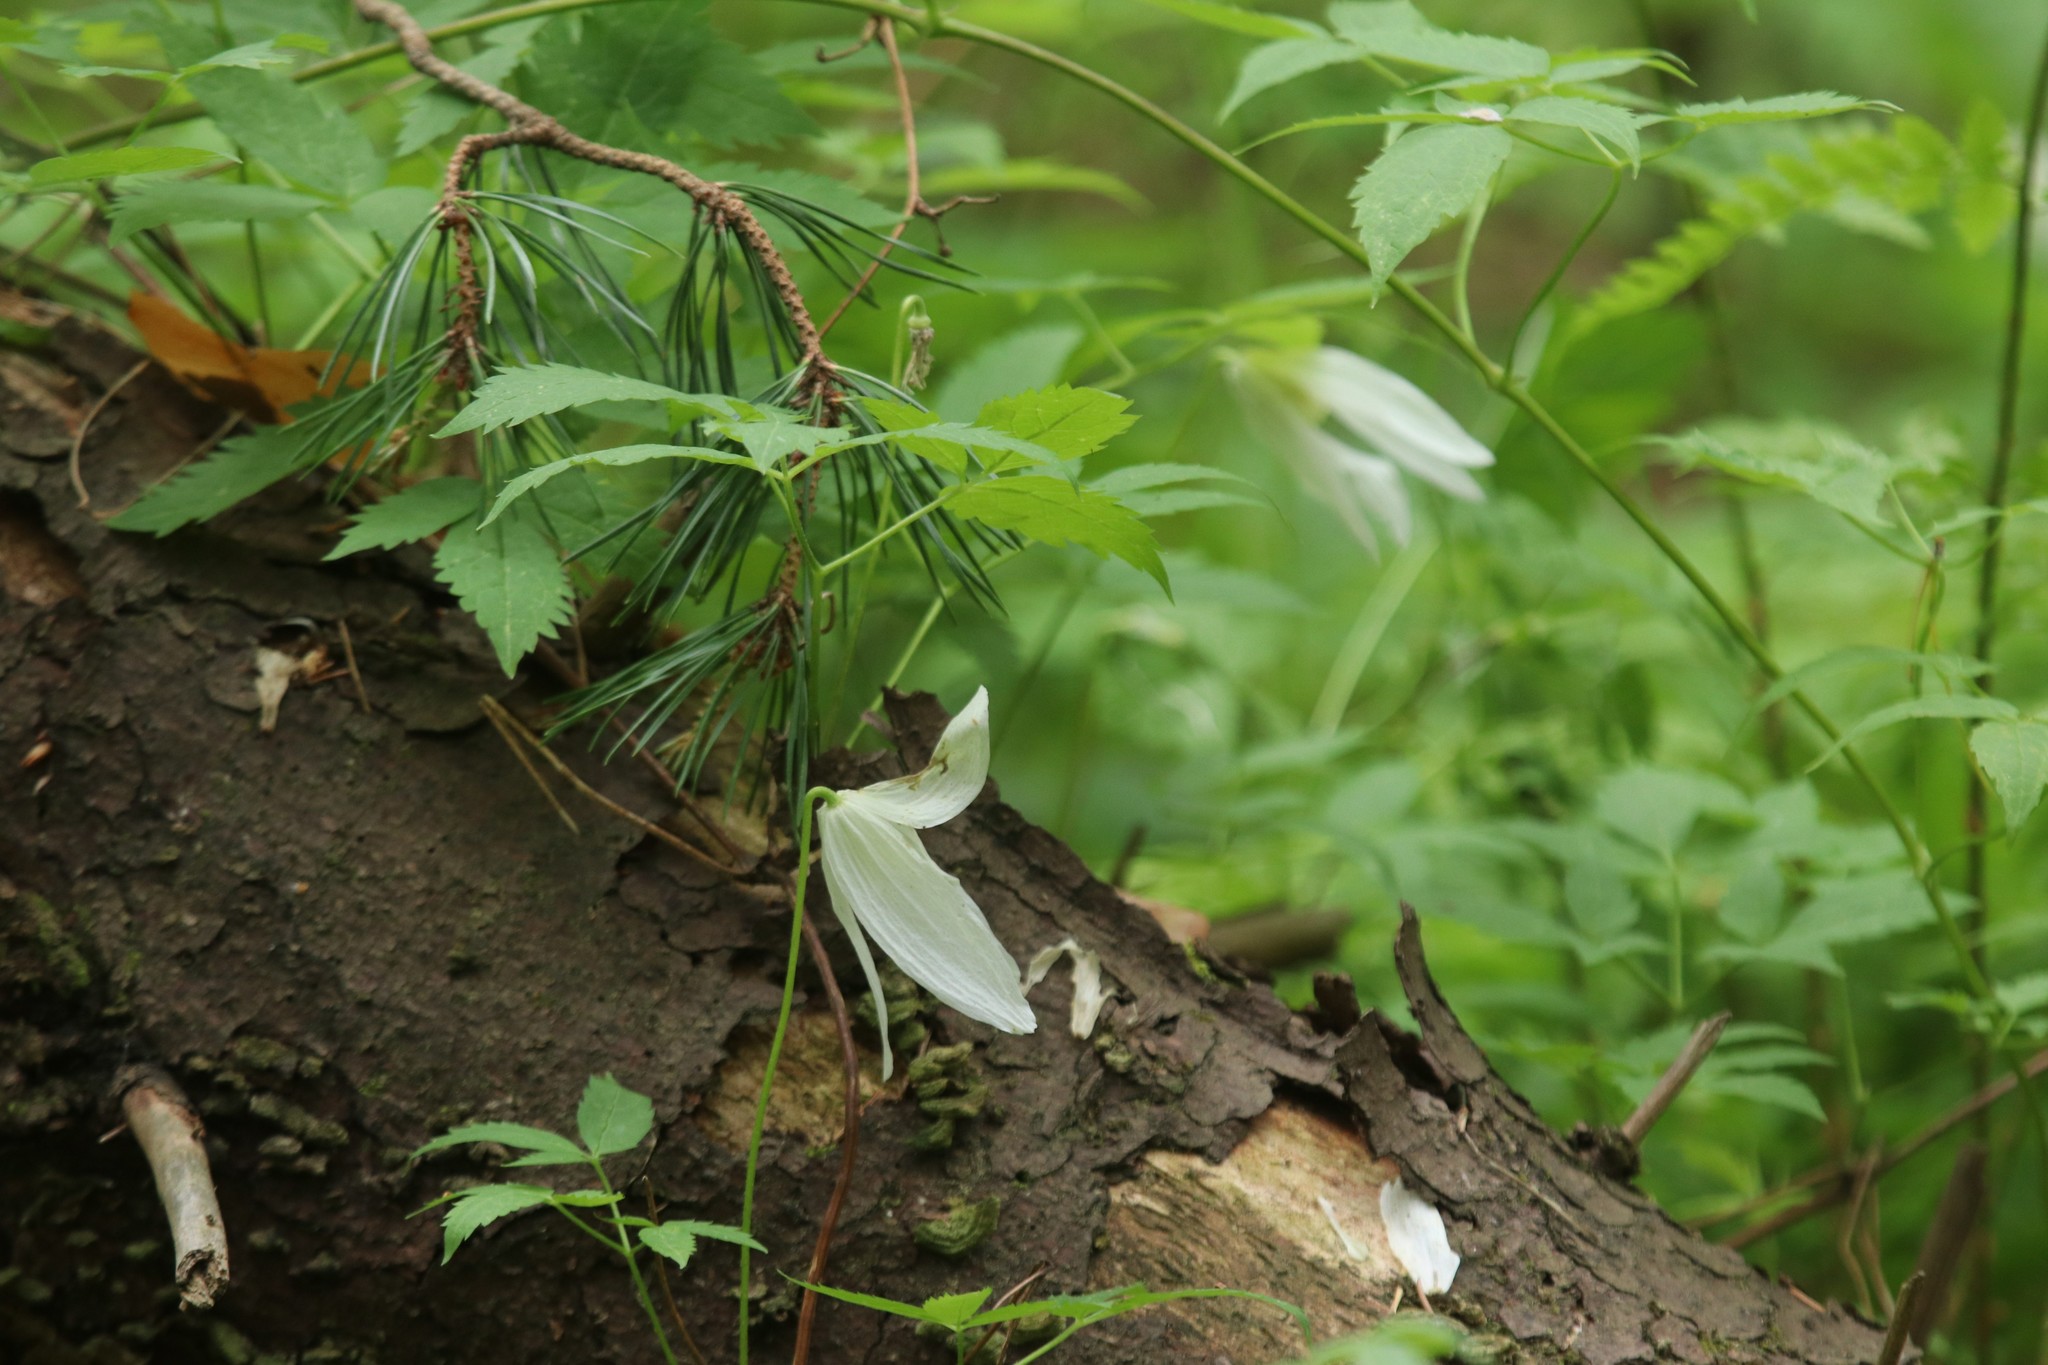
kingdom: Plantae
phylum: Tracheophyta
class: Magnoliopsida
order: Ranunculales
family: Ranunculaceae
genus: Clematis
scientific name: Clematis sibirica
